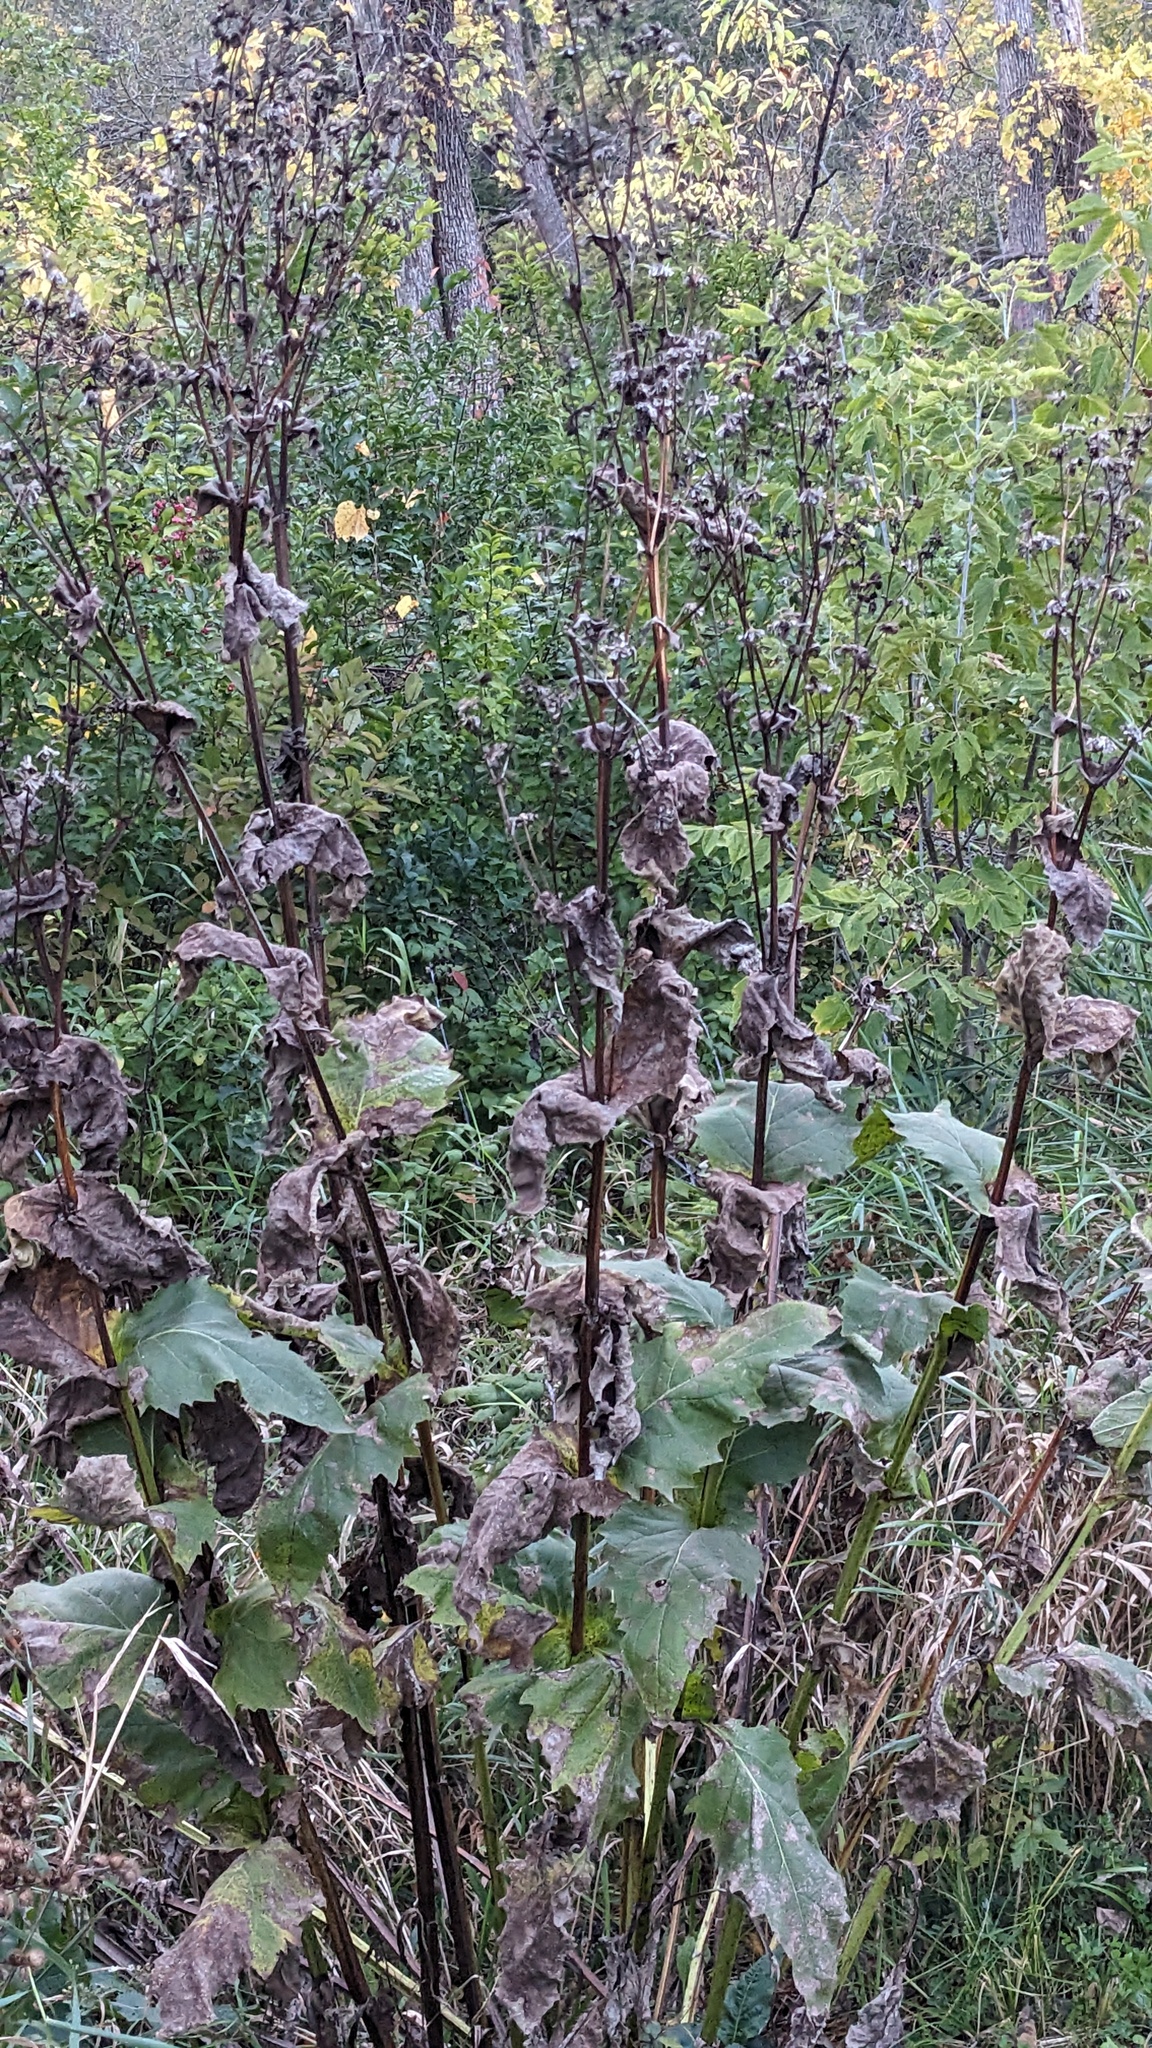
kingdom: Plantae
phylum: Tracheophyta
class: Magnoliopsida
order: Asterales
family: Asteraceae
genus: Silphium
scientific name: Silphium perfoliatum
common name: Cup-plant
